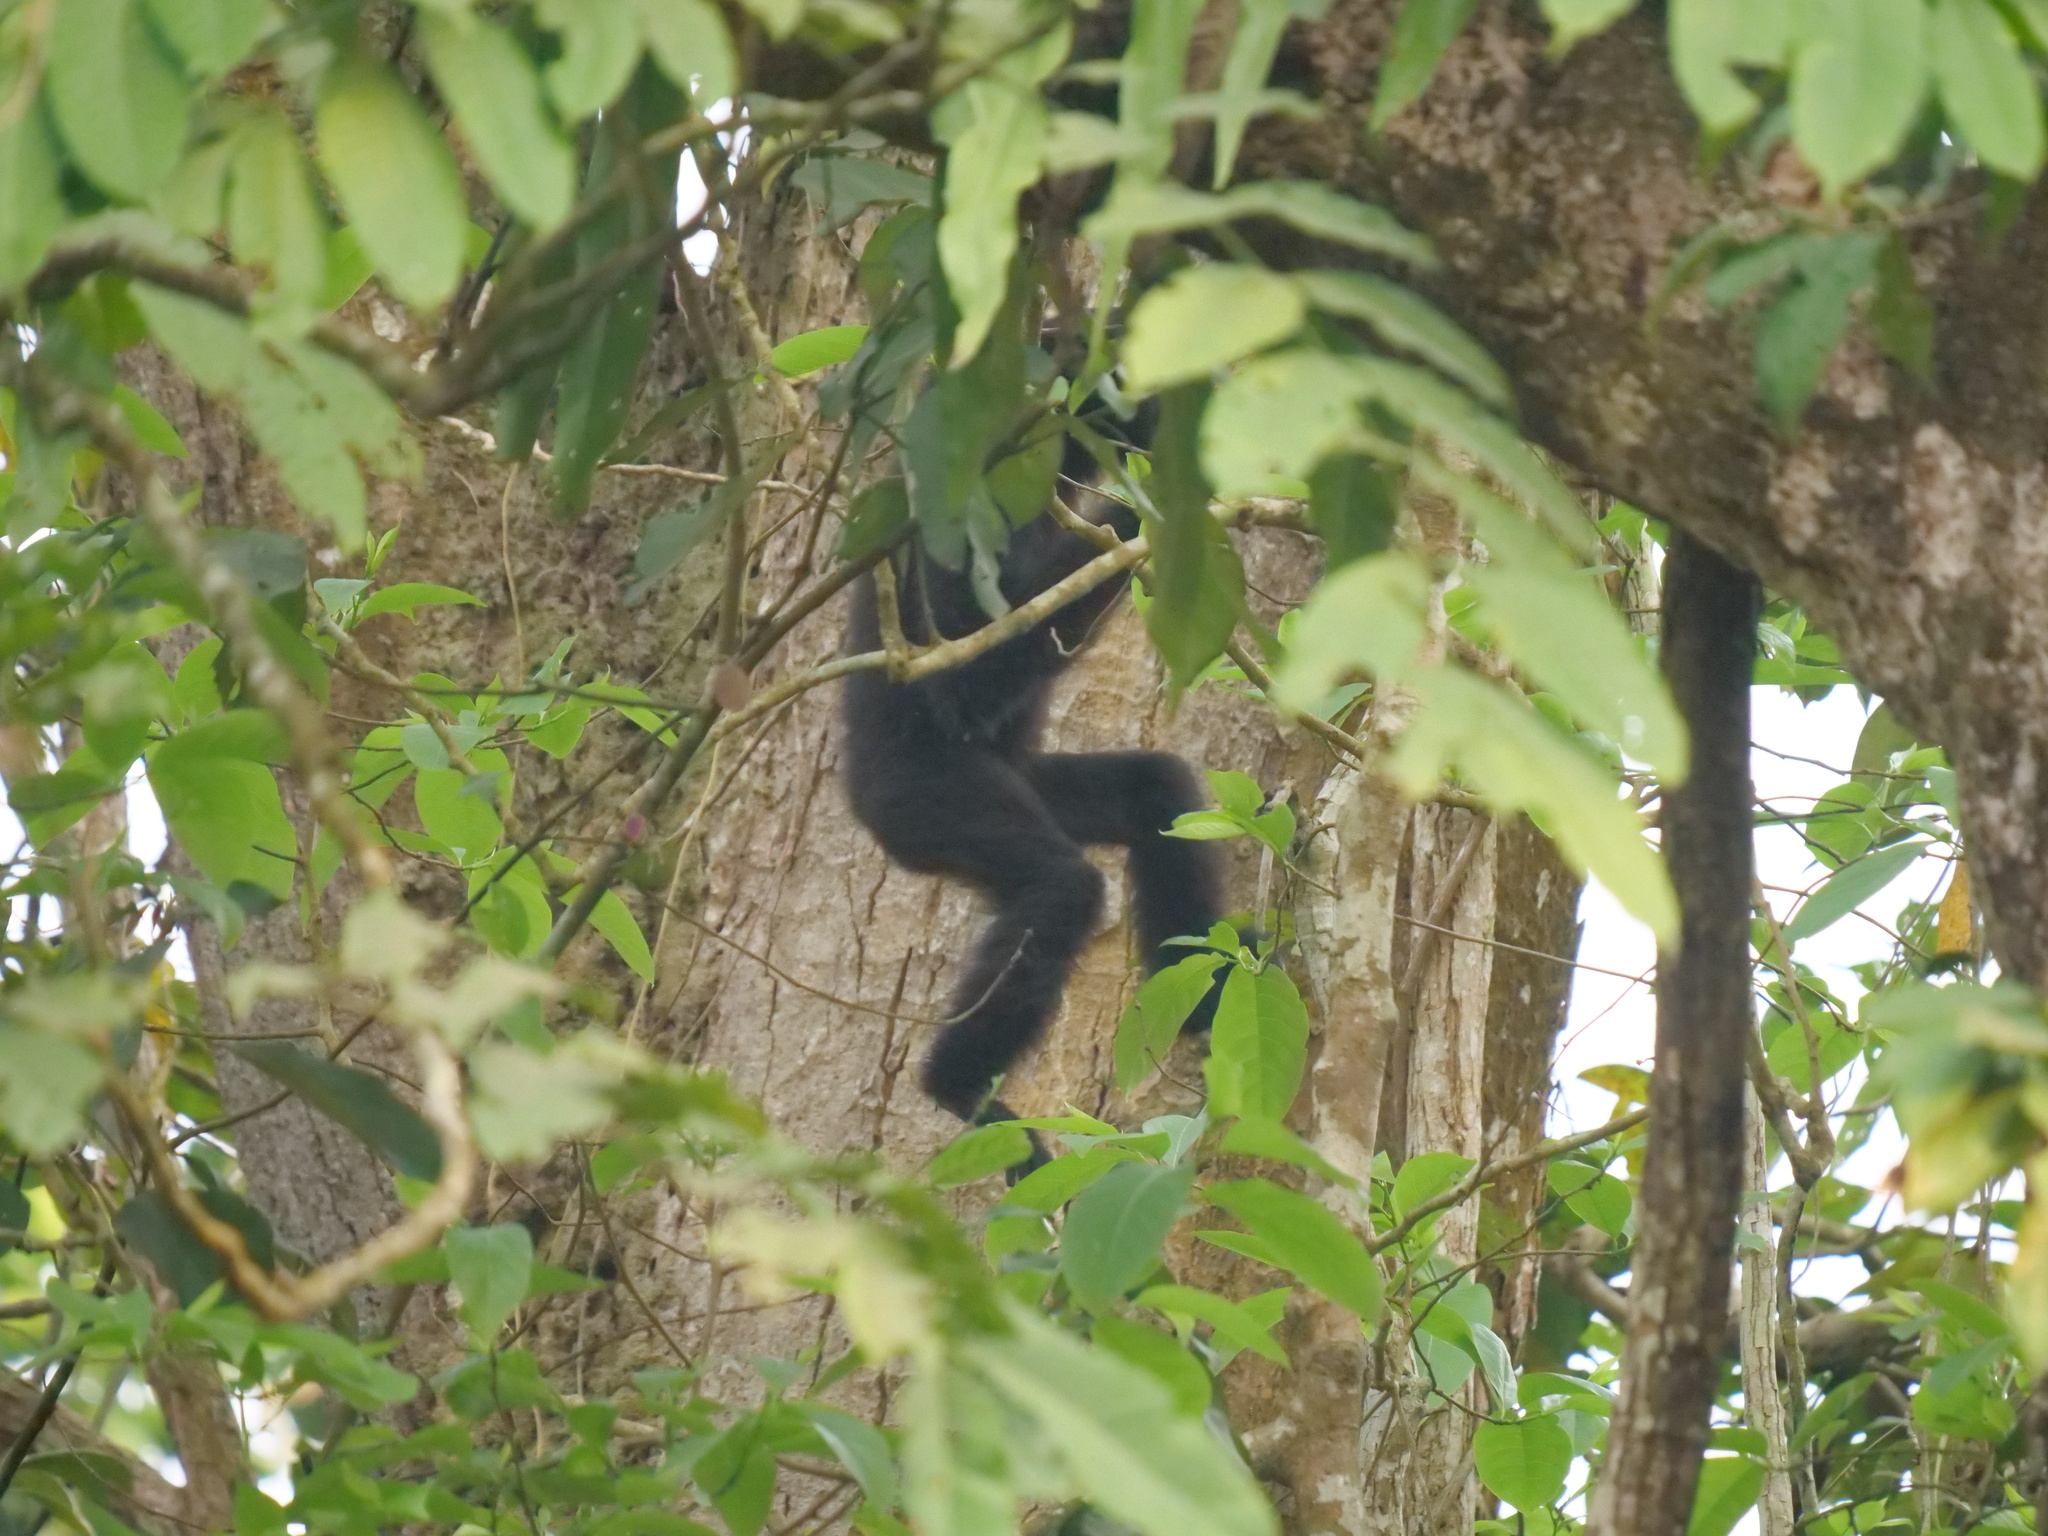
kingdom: Animalia
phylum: Chordata
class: Mammalia
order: Primates
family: Hylobatidae
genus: Hoolock
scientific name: Hoolock hoolock
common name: Western hoolock gibbon
